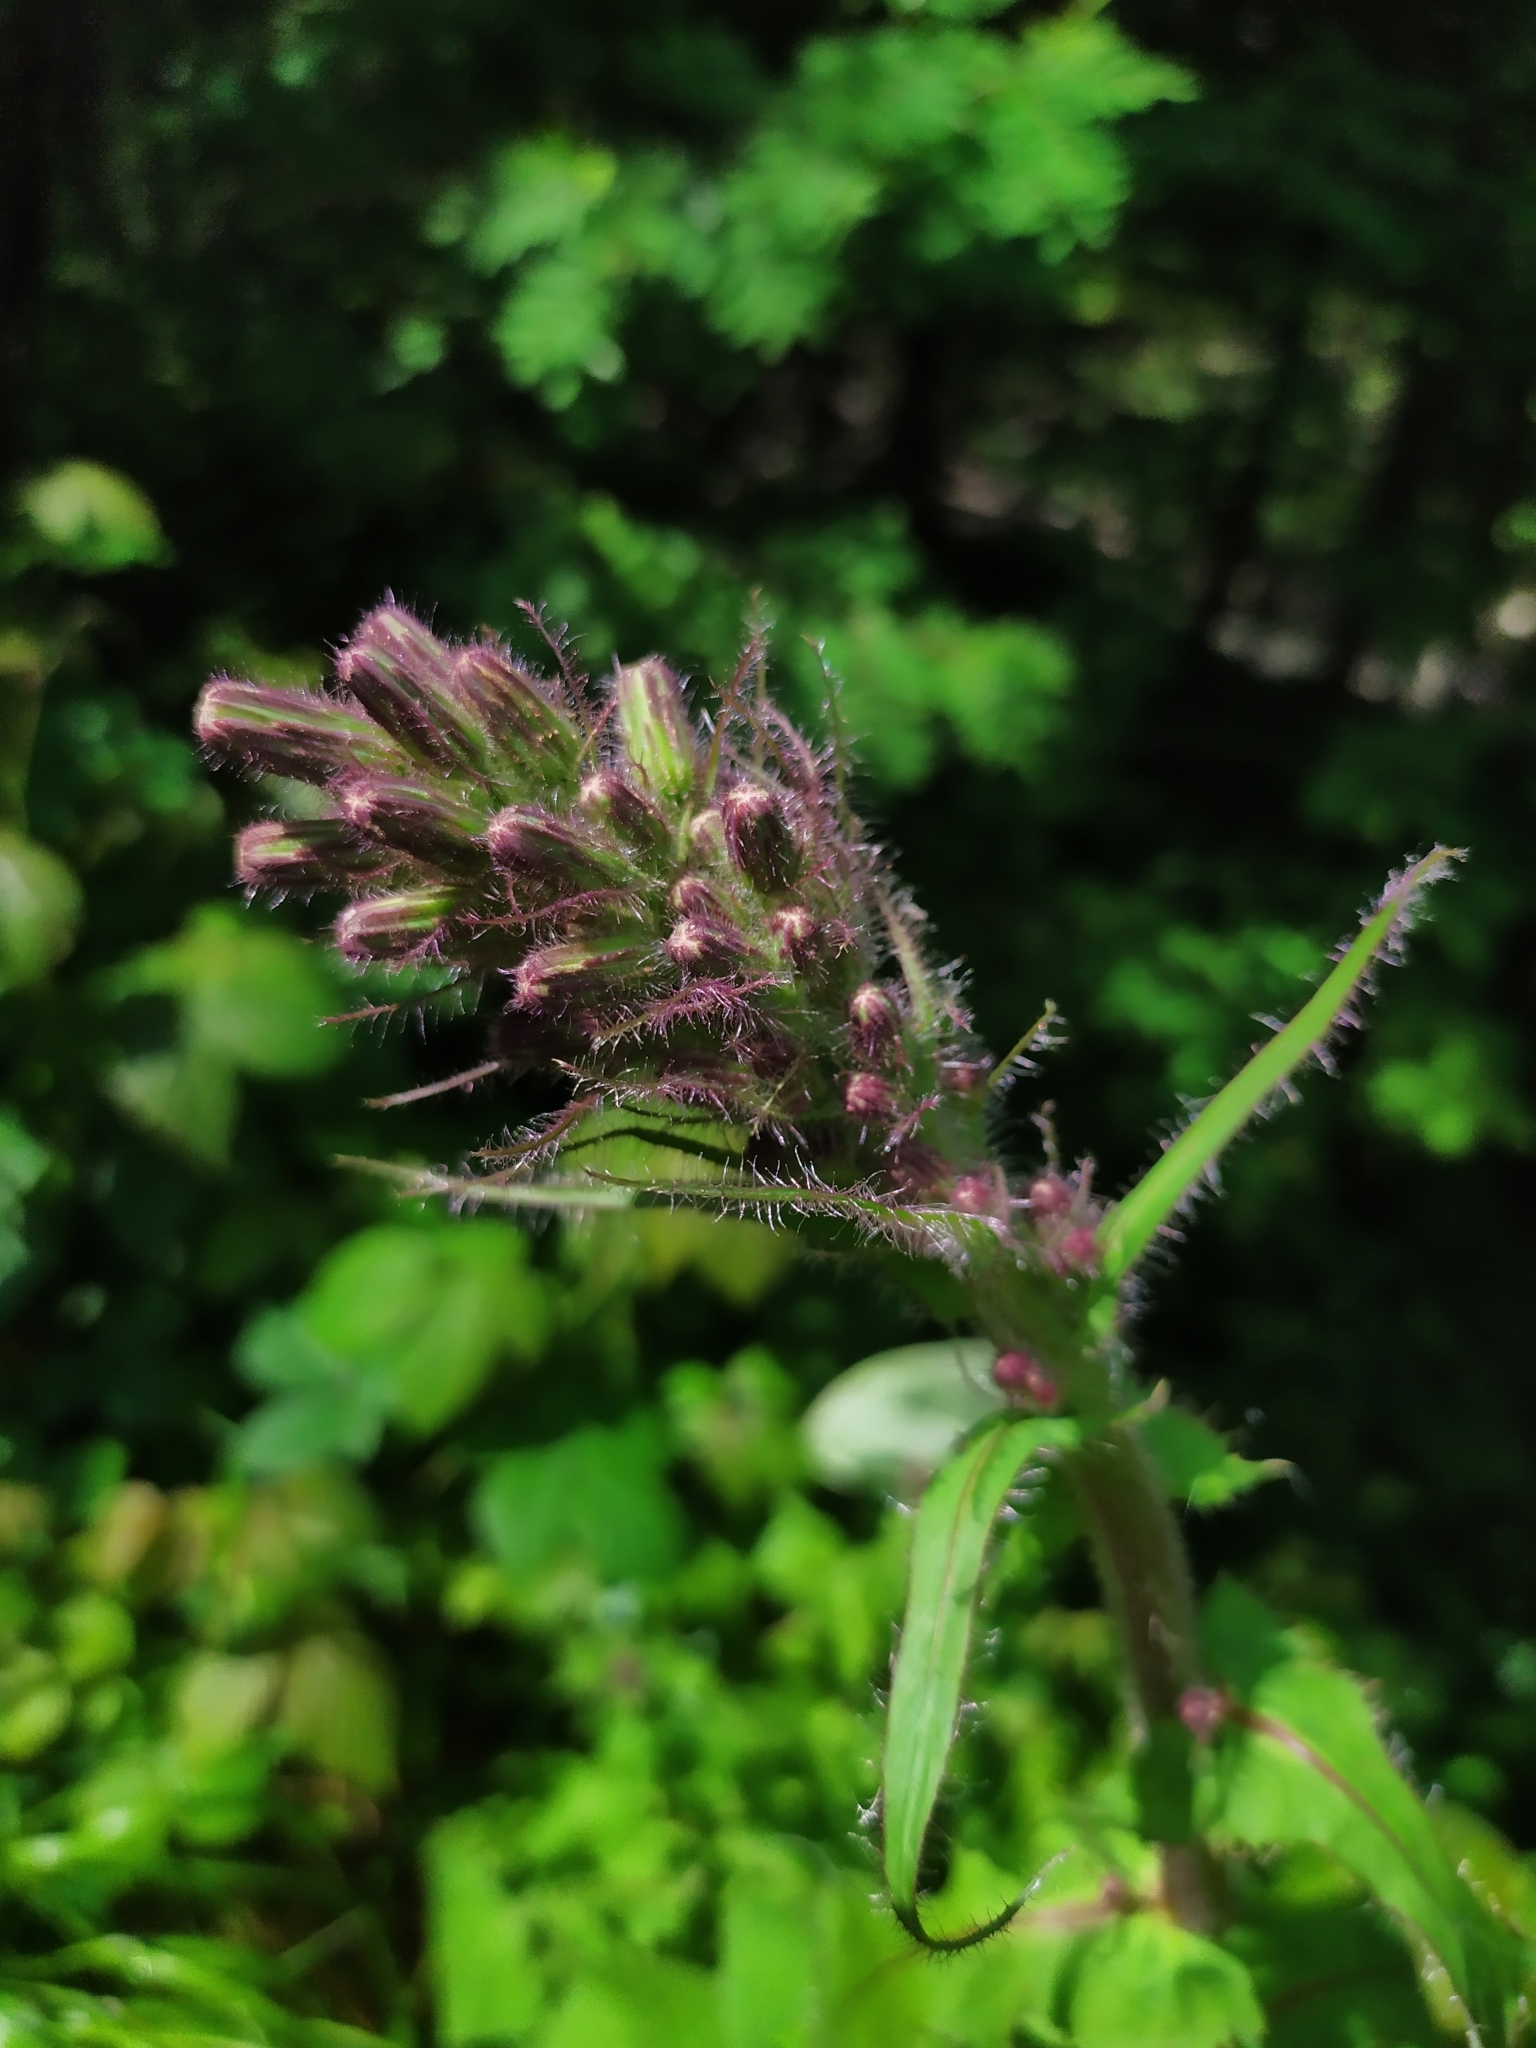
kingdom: Plantae
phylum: Tracheophyta
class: Magnoliopsida
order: Asterales
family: Asteraceae
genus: Cicerbita
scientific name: Cicerbita alpina
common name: Alpine blue-sow-thistle
